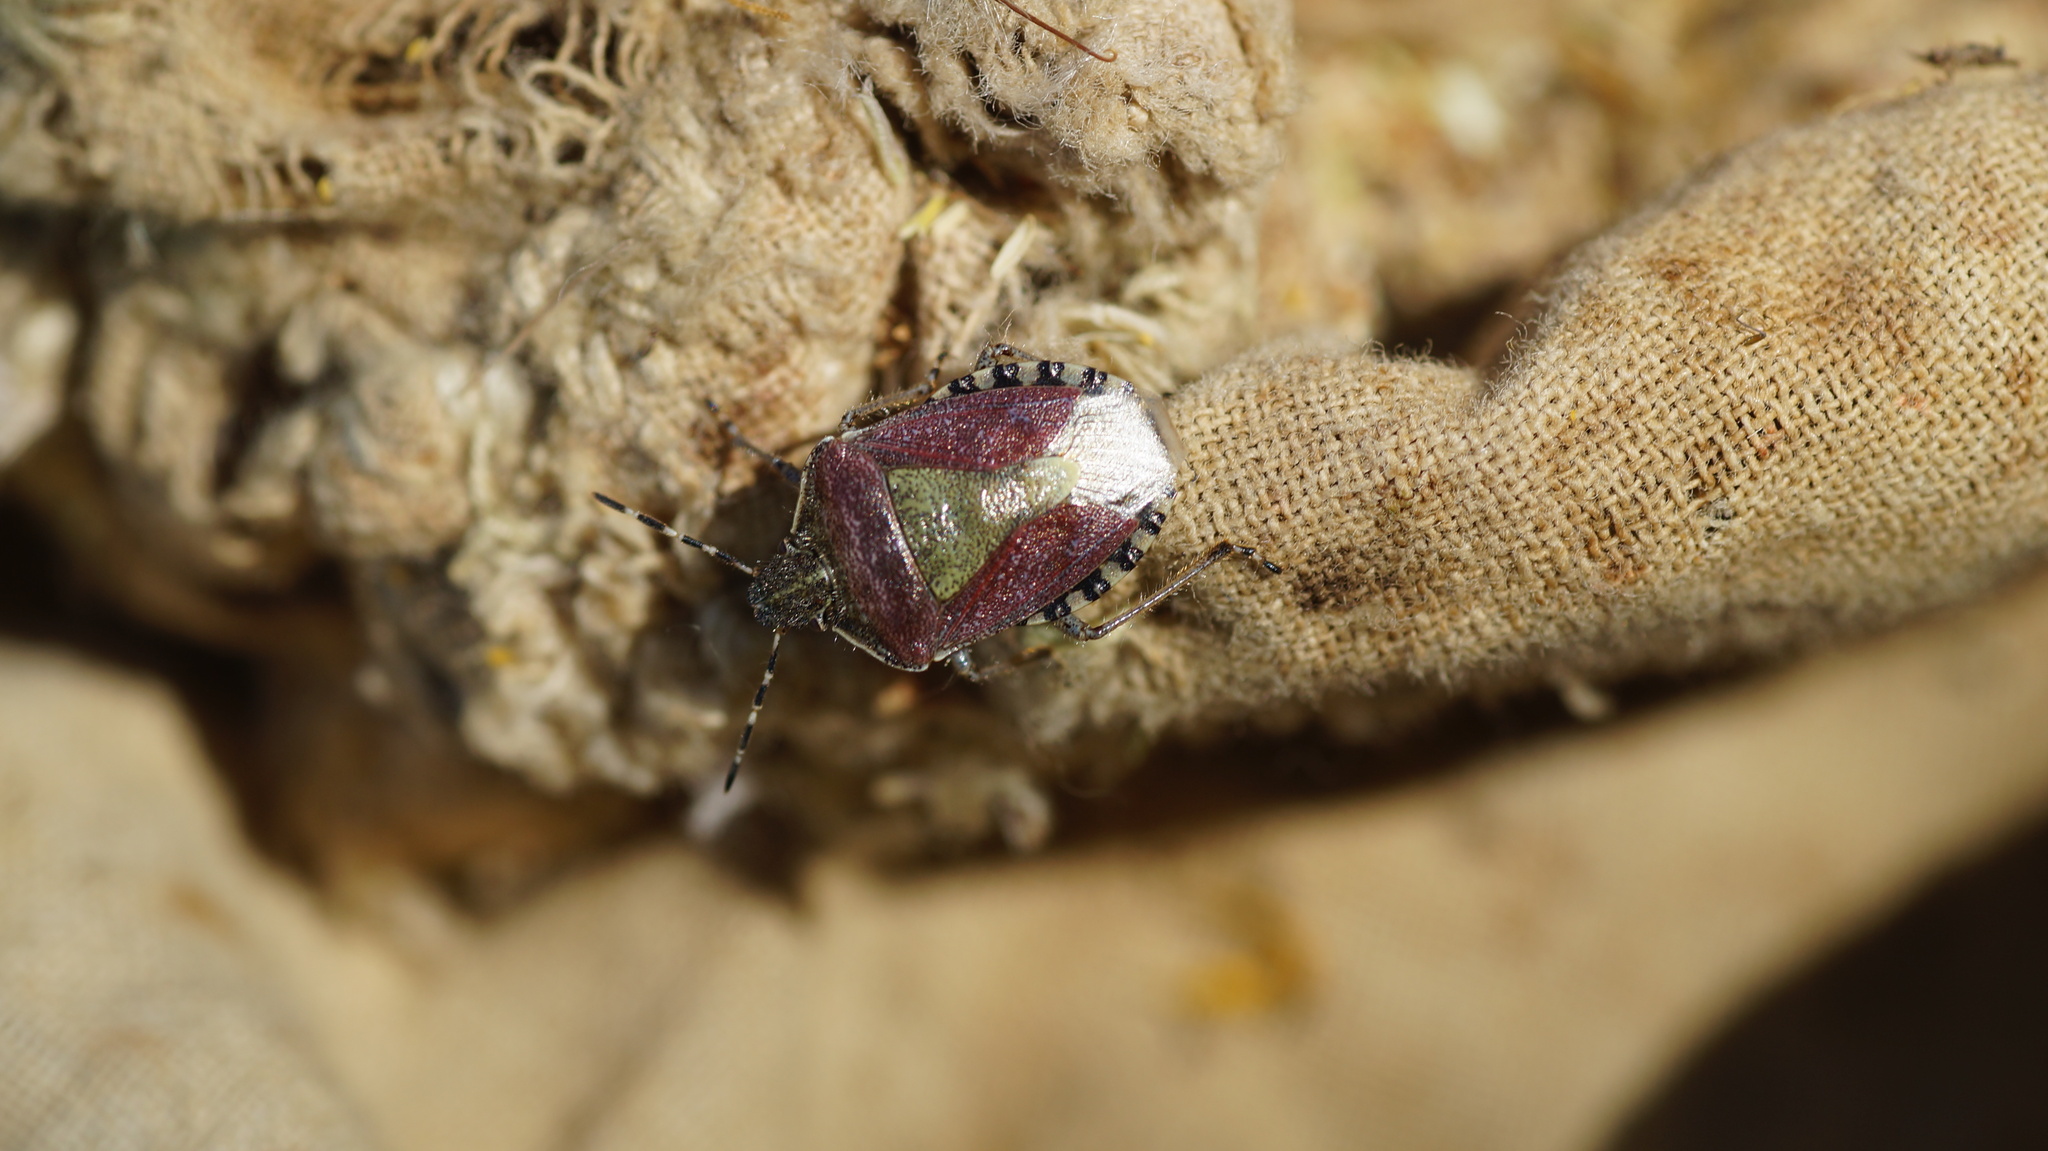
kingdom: Animalia
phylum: Arthropoda
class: Insecta
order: Hemiptera
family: Pentatomidae
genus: Dolycoris
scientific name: Dolycoris baccarum
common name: Sloe bug
